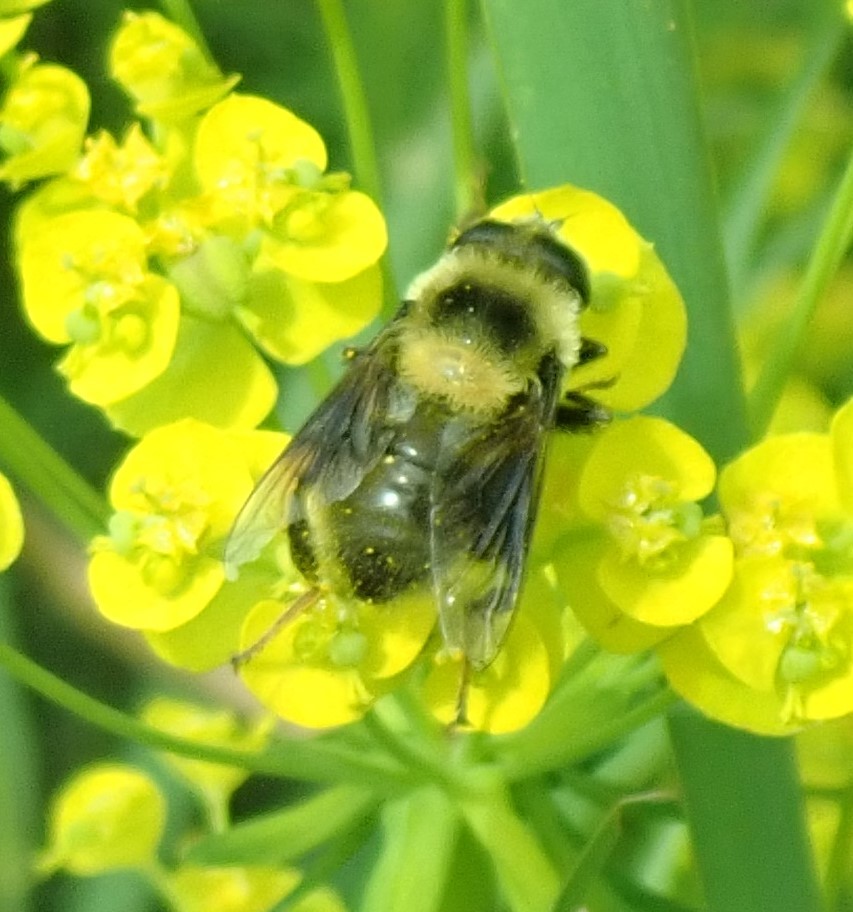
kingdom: Animalia
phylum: Arthropoda
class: Insecta
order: Diptera
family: Syrphidae
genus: Eristalis
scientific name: Eristalis flavipes
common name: Orange-legged drone fly
